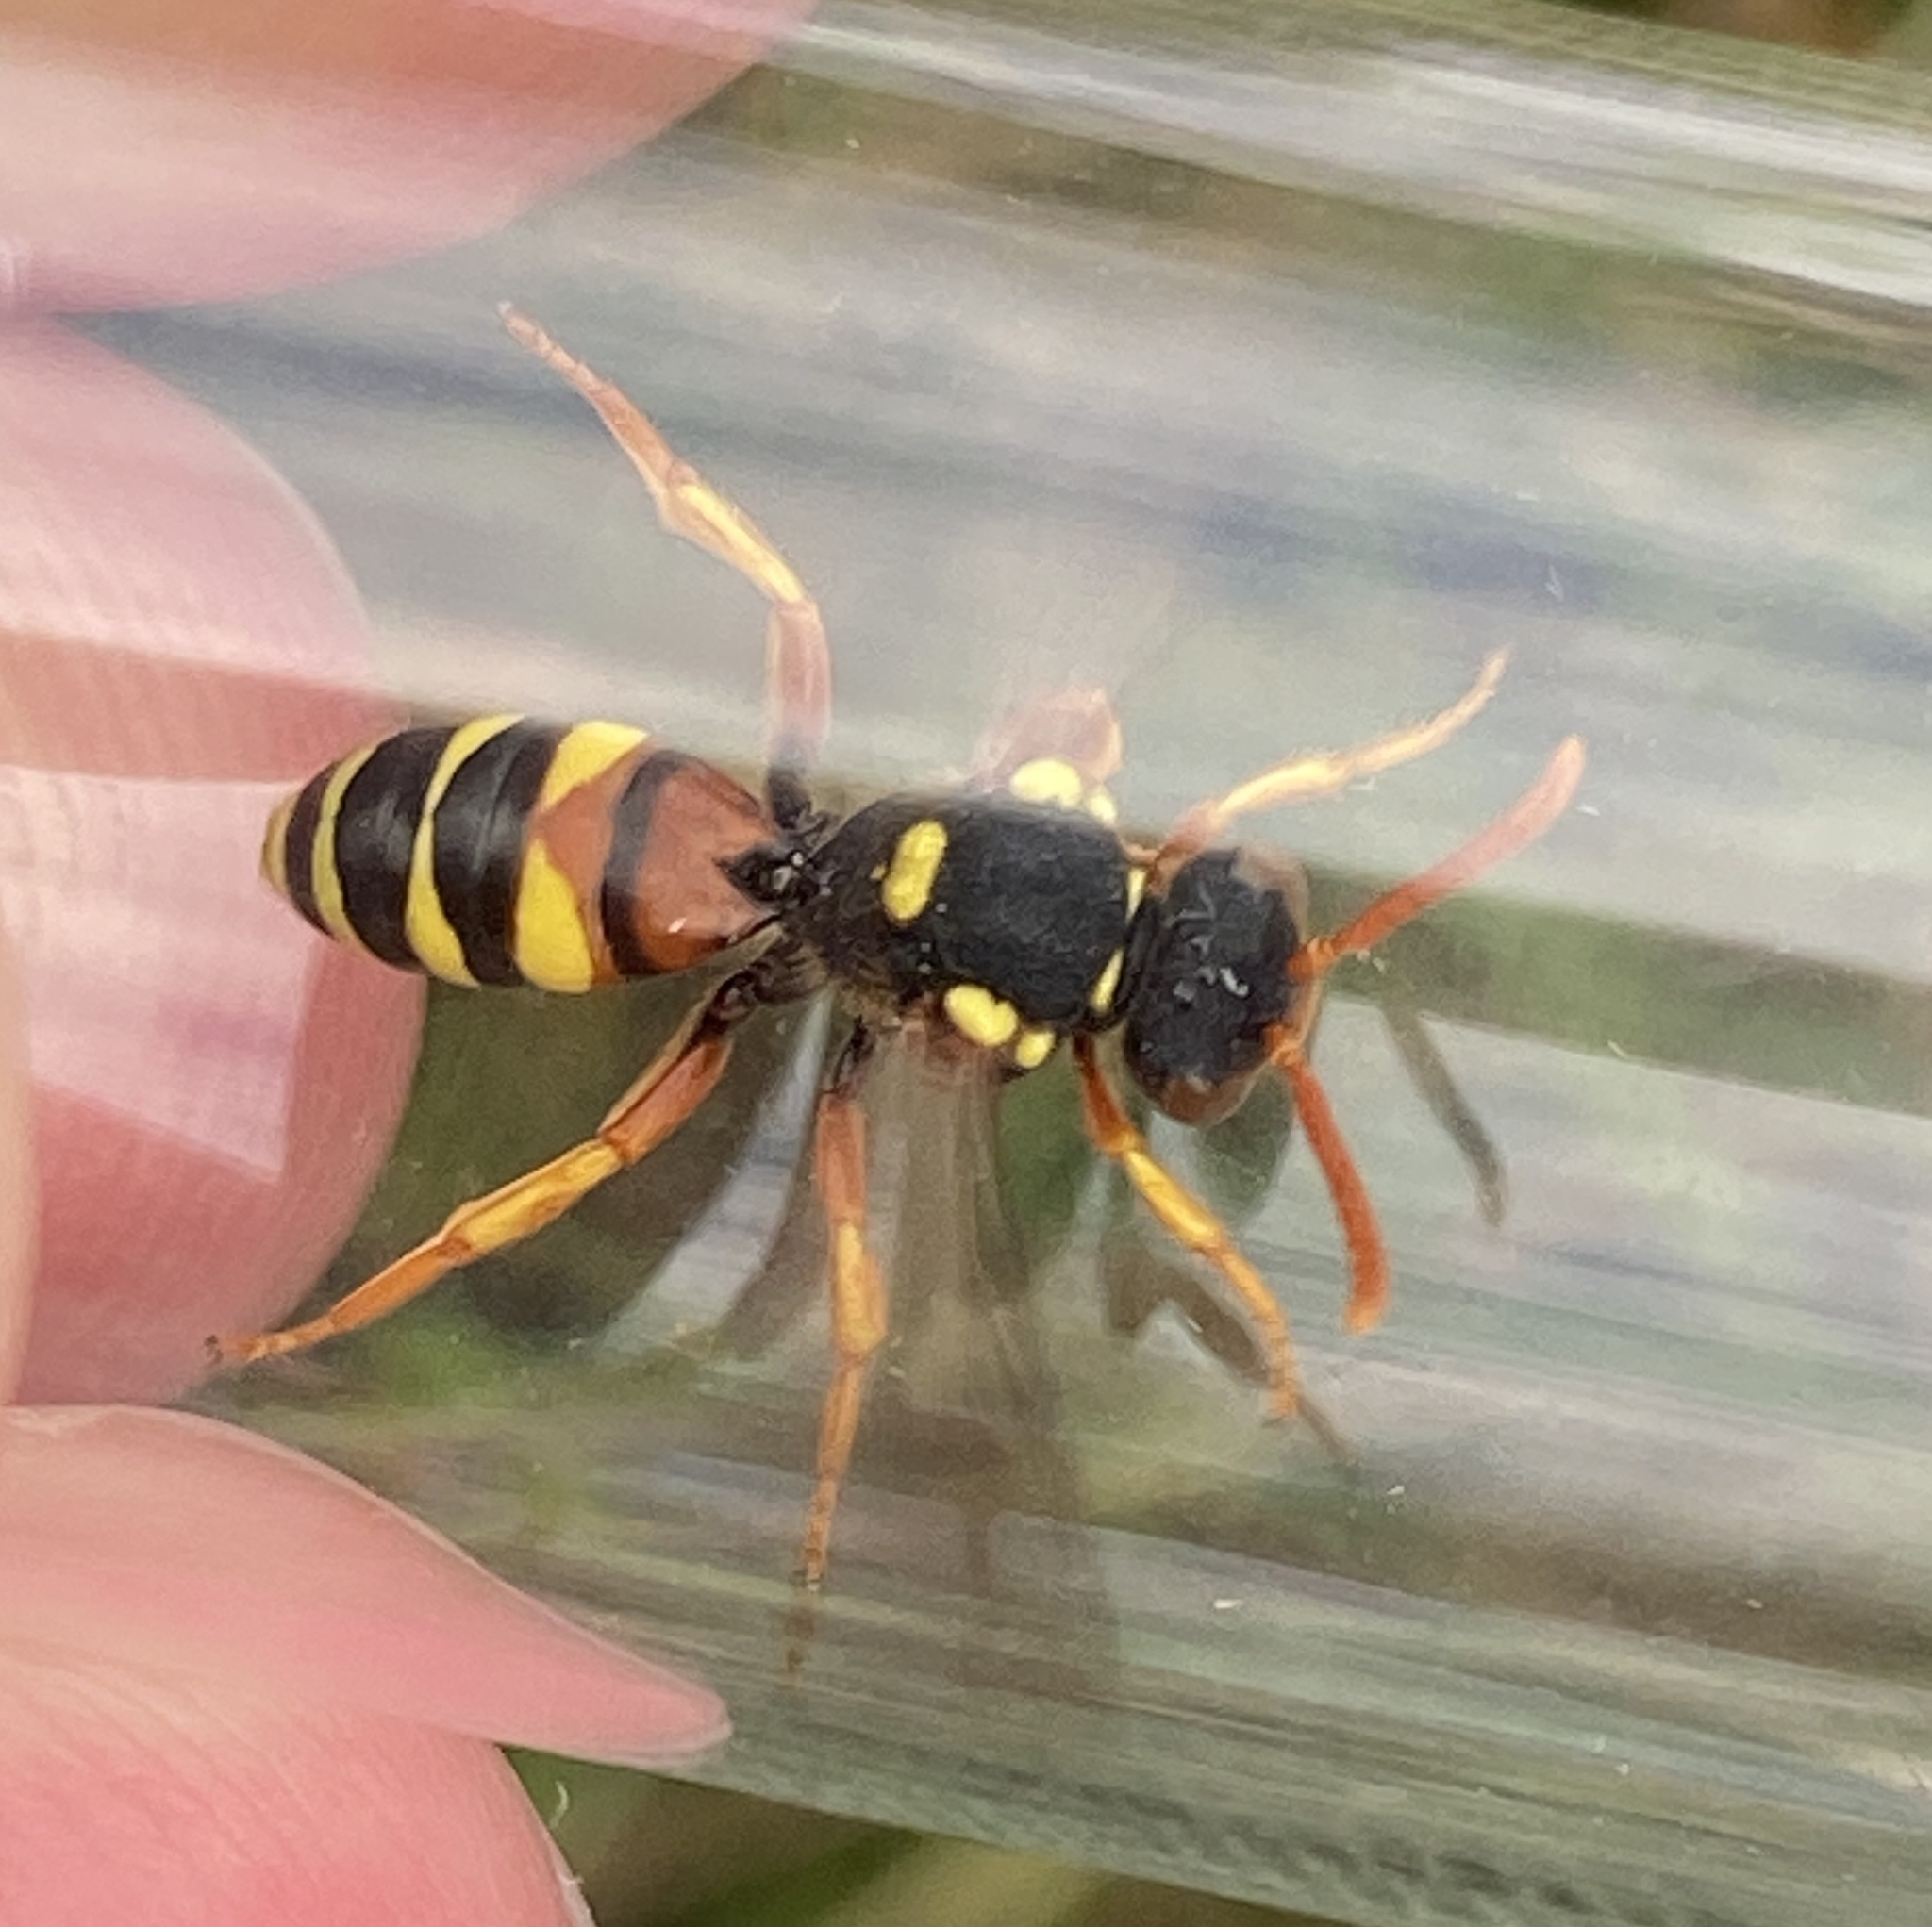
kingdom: Animalia
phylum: Arthropoda
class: Insecta
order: Hymenoptera
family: Apidae
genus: Nomada
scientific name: Nomada fucata
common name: Painted nomad bee
